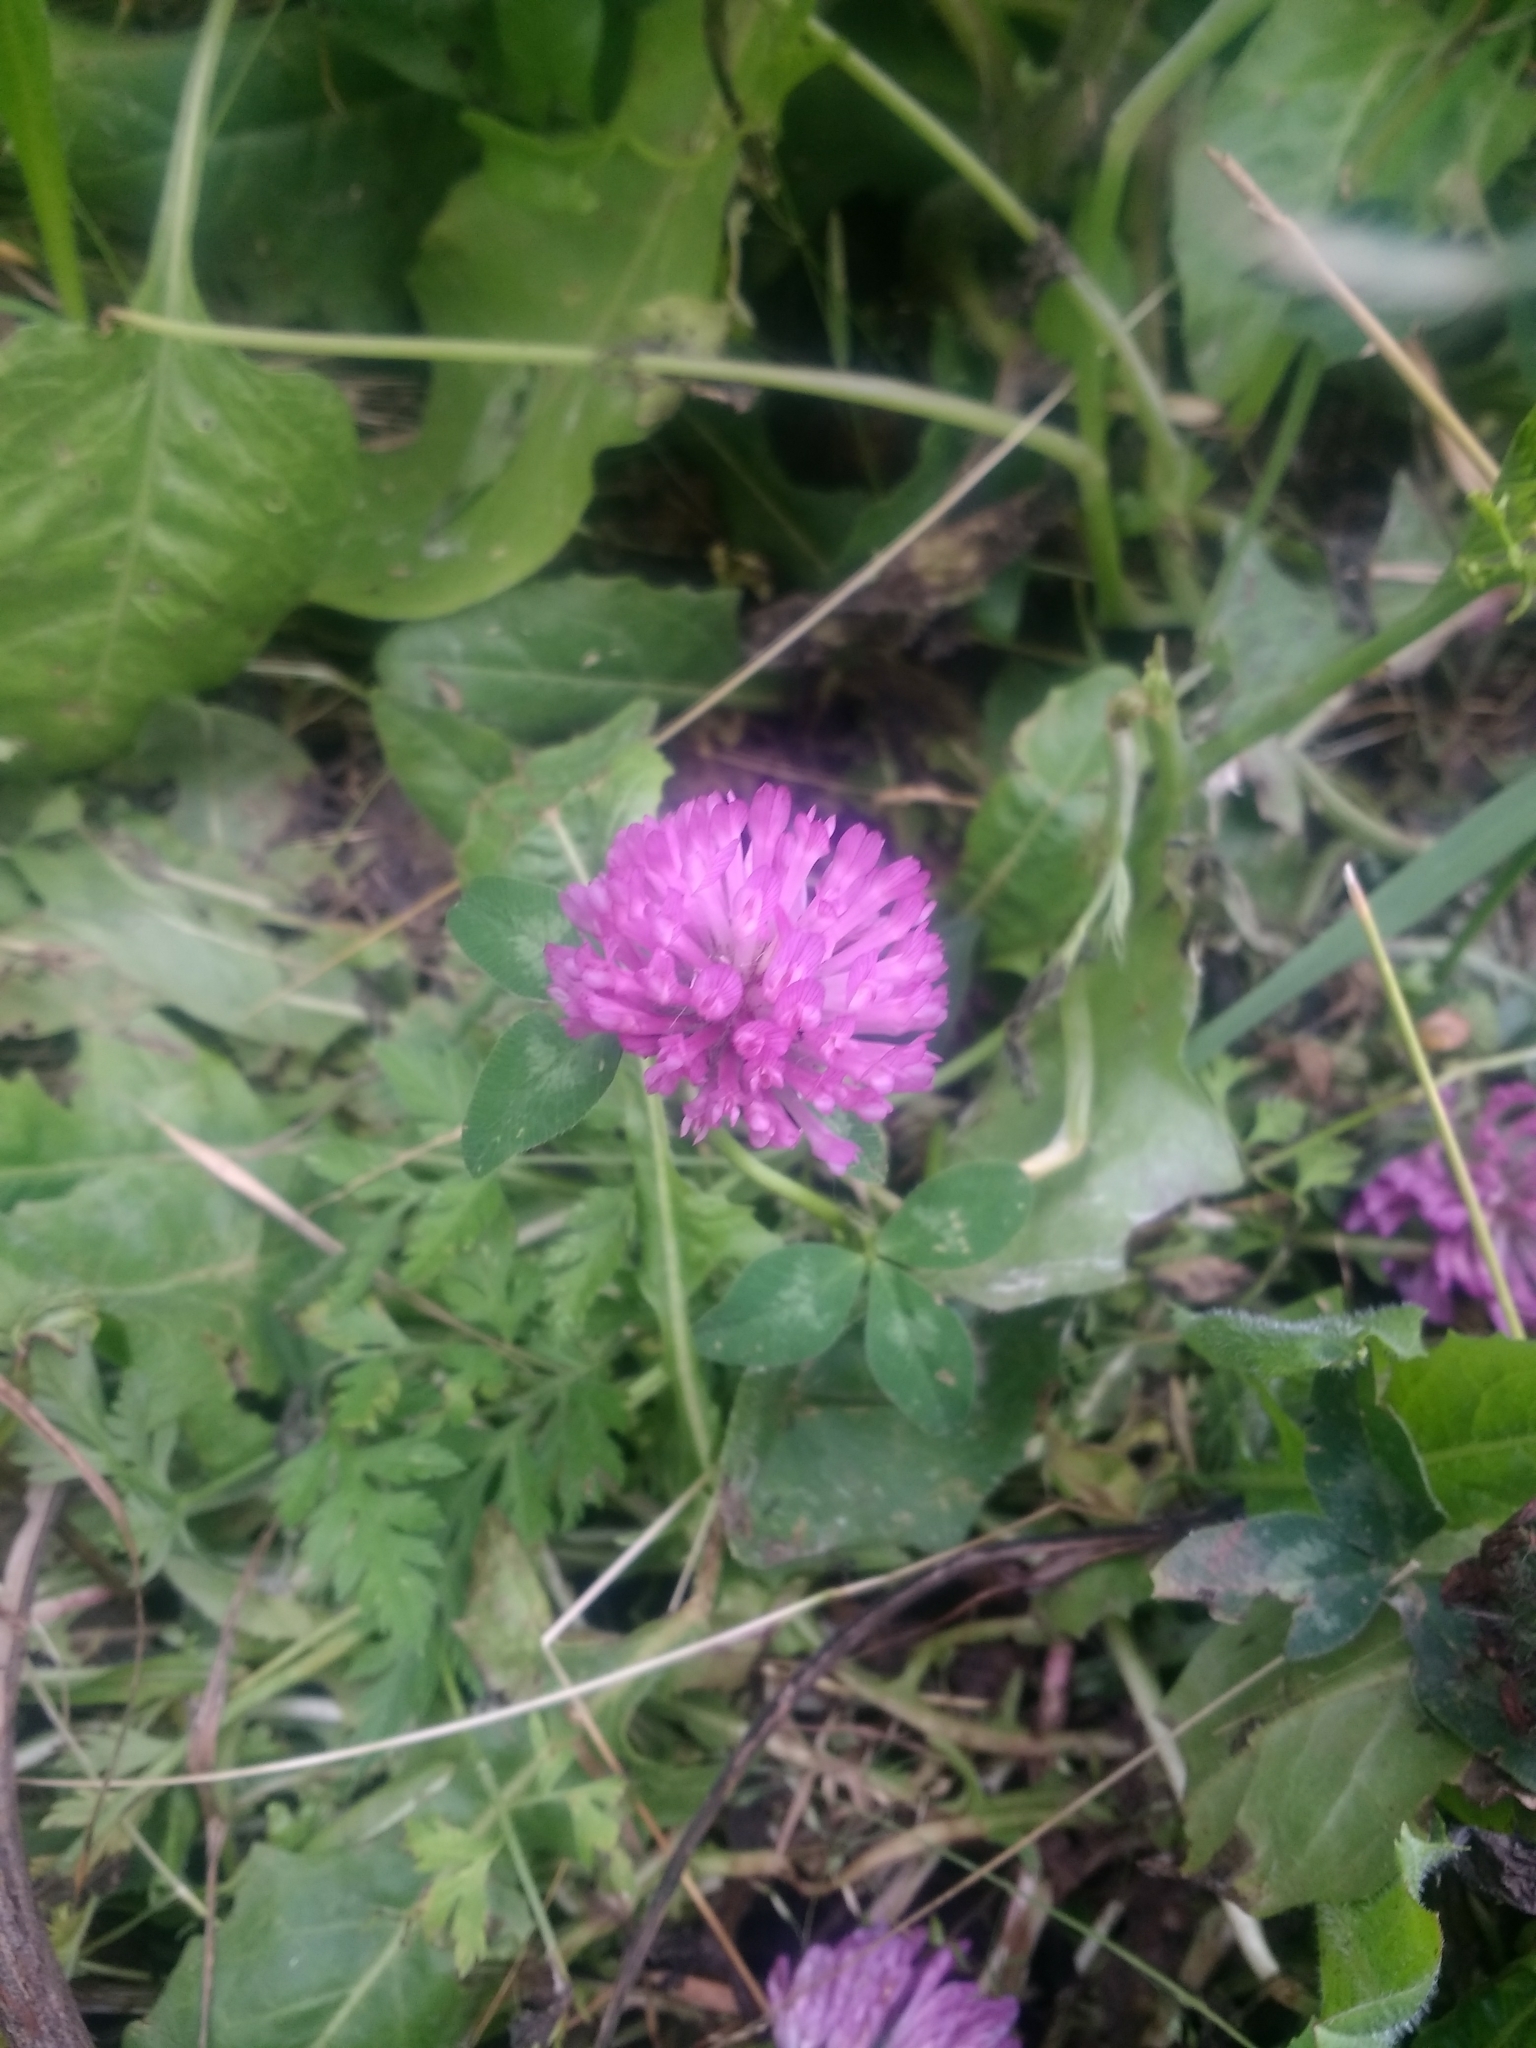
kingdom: Plantae
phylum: Tracheophyta
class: Magnoliopsida
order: Fabales
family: Fabaceae
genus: Trifolium
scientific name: Trifolium pratense
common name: Red clover
